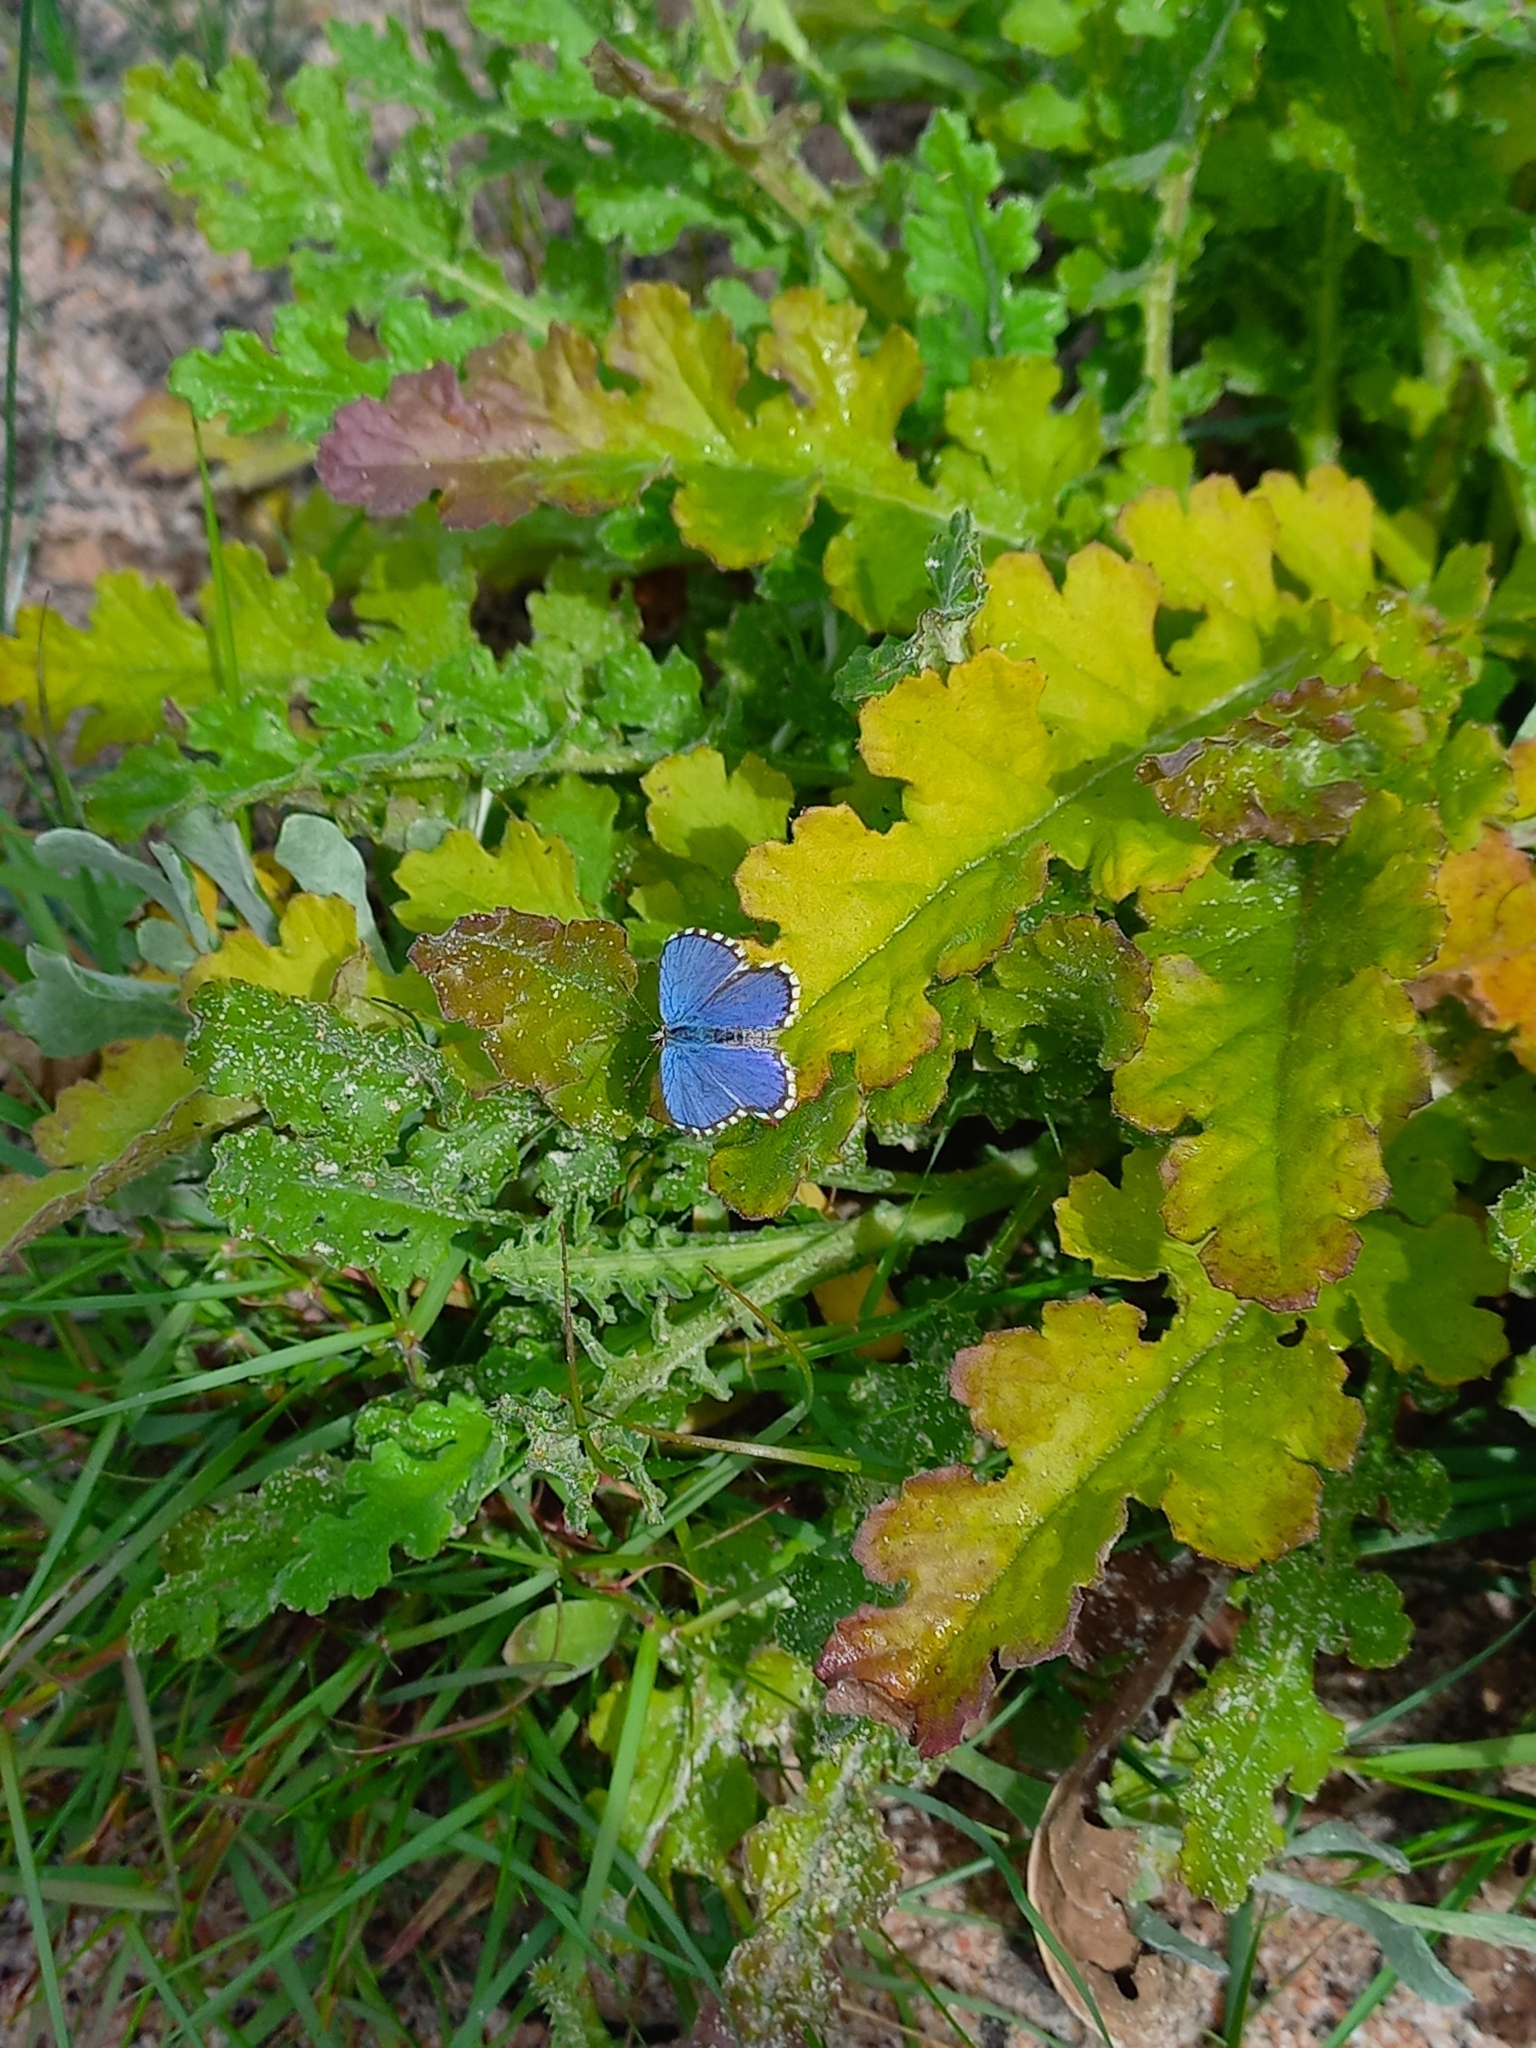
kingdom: Animalia
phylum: Arthropoda
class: Insecta
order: Lepidoptera
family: Lycaenidae
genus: Tarucus
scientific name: Tarucus thespis
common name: Vivid dotted blue
